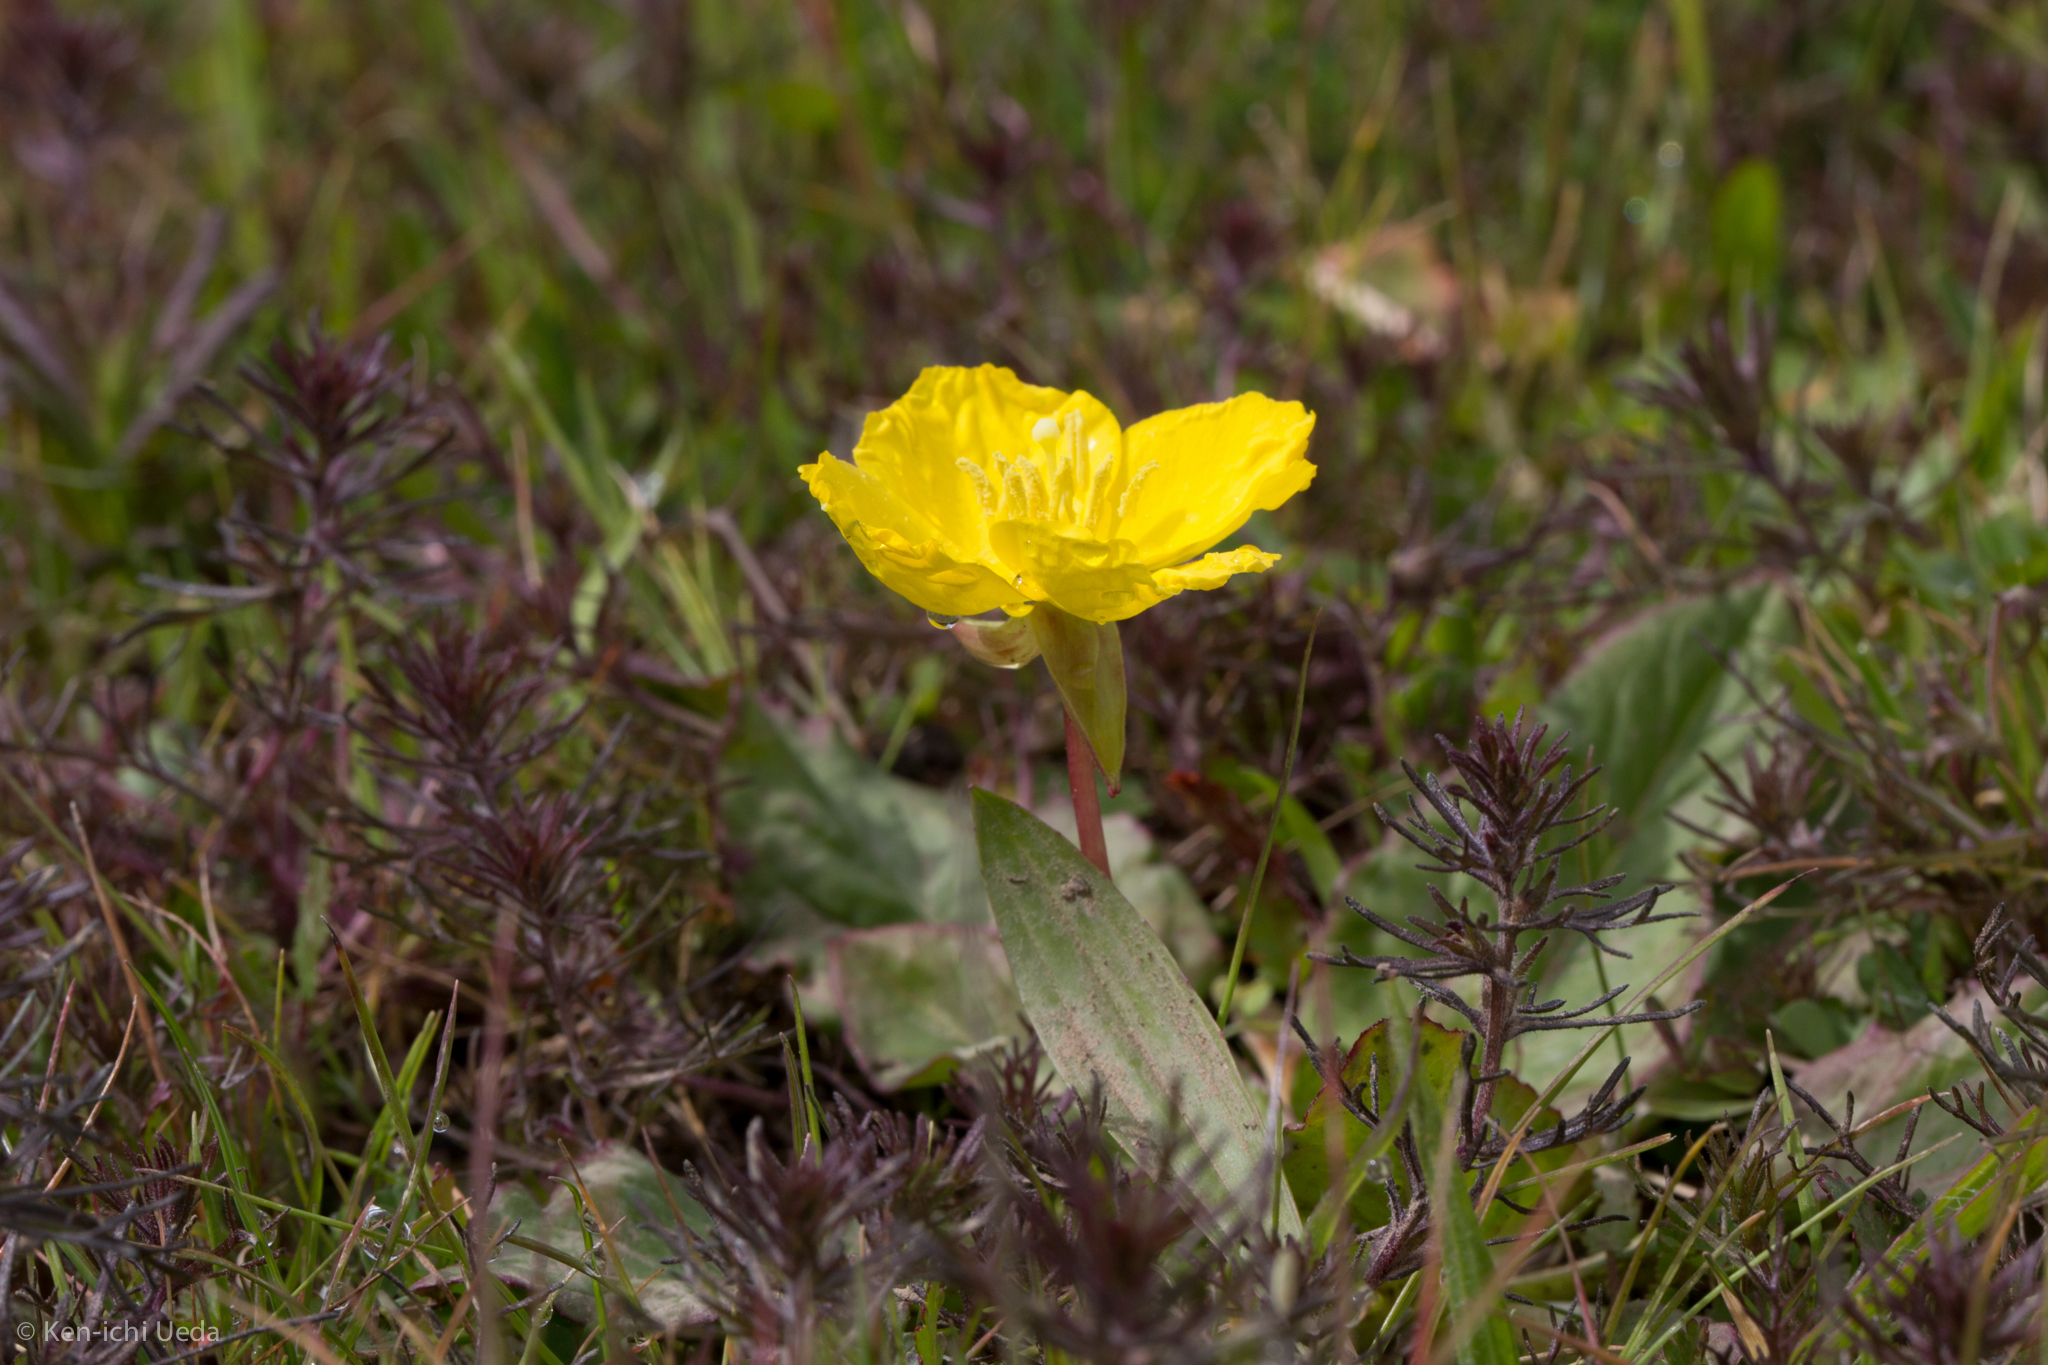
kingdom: Plantae
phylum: Tracheophyta
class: Magnoliopsida
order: Myrtales
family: Onagraceae
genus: Taraxia
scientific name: Taraxia ovata
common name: Goldeneggs
